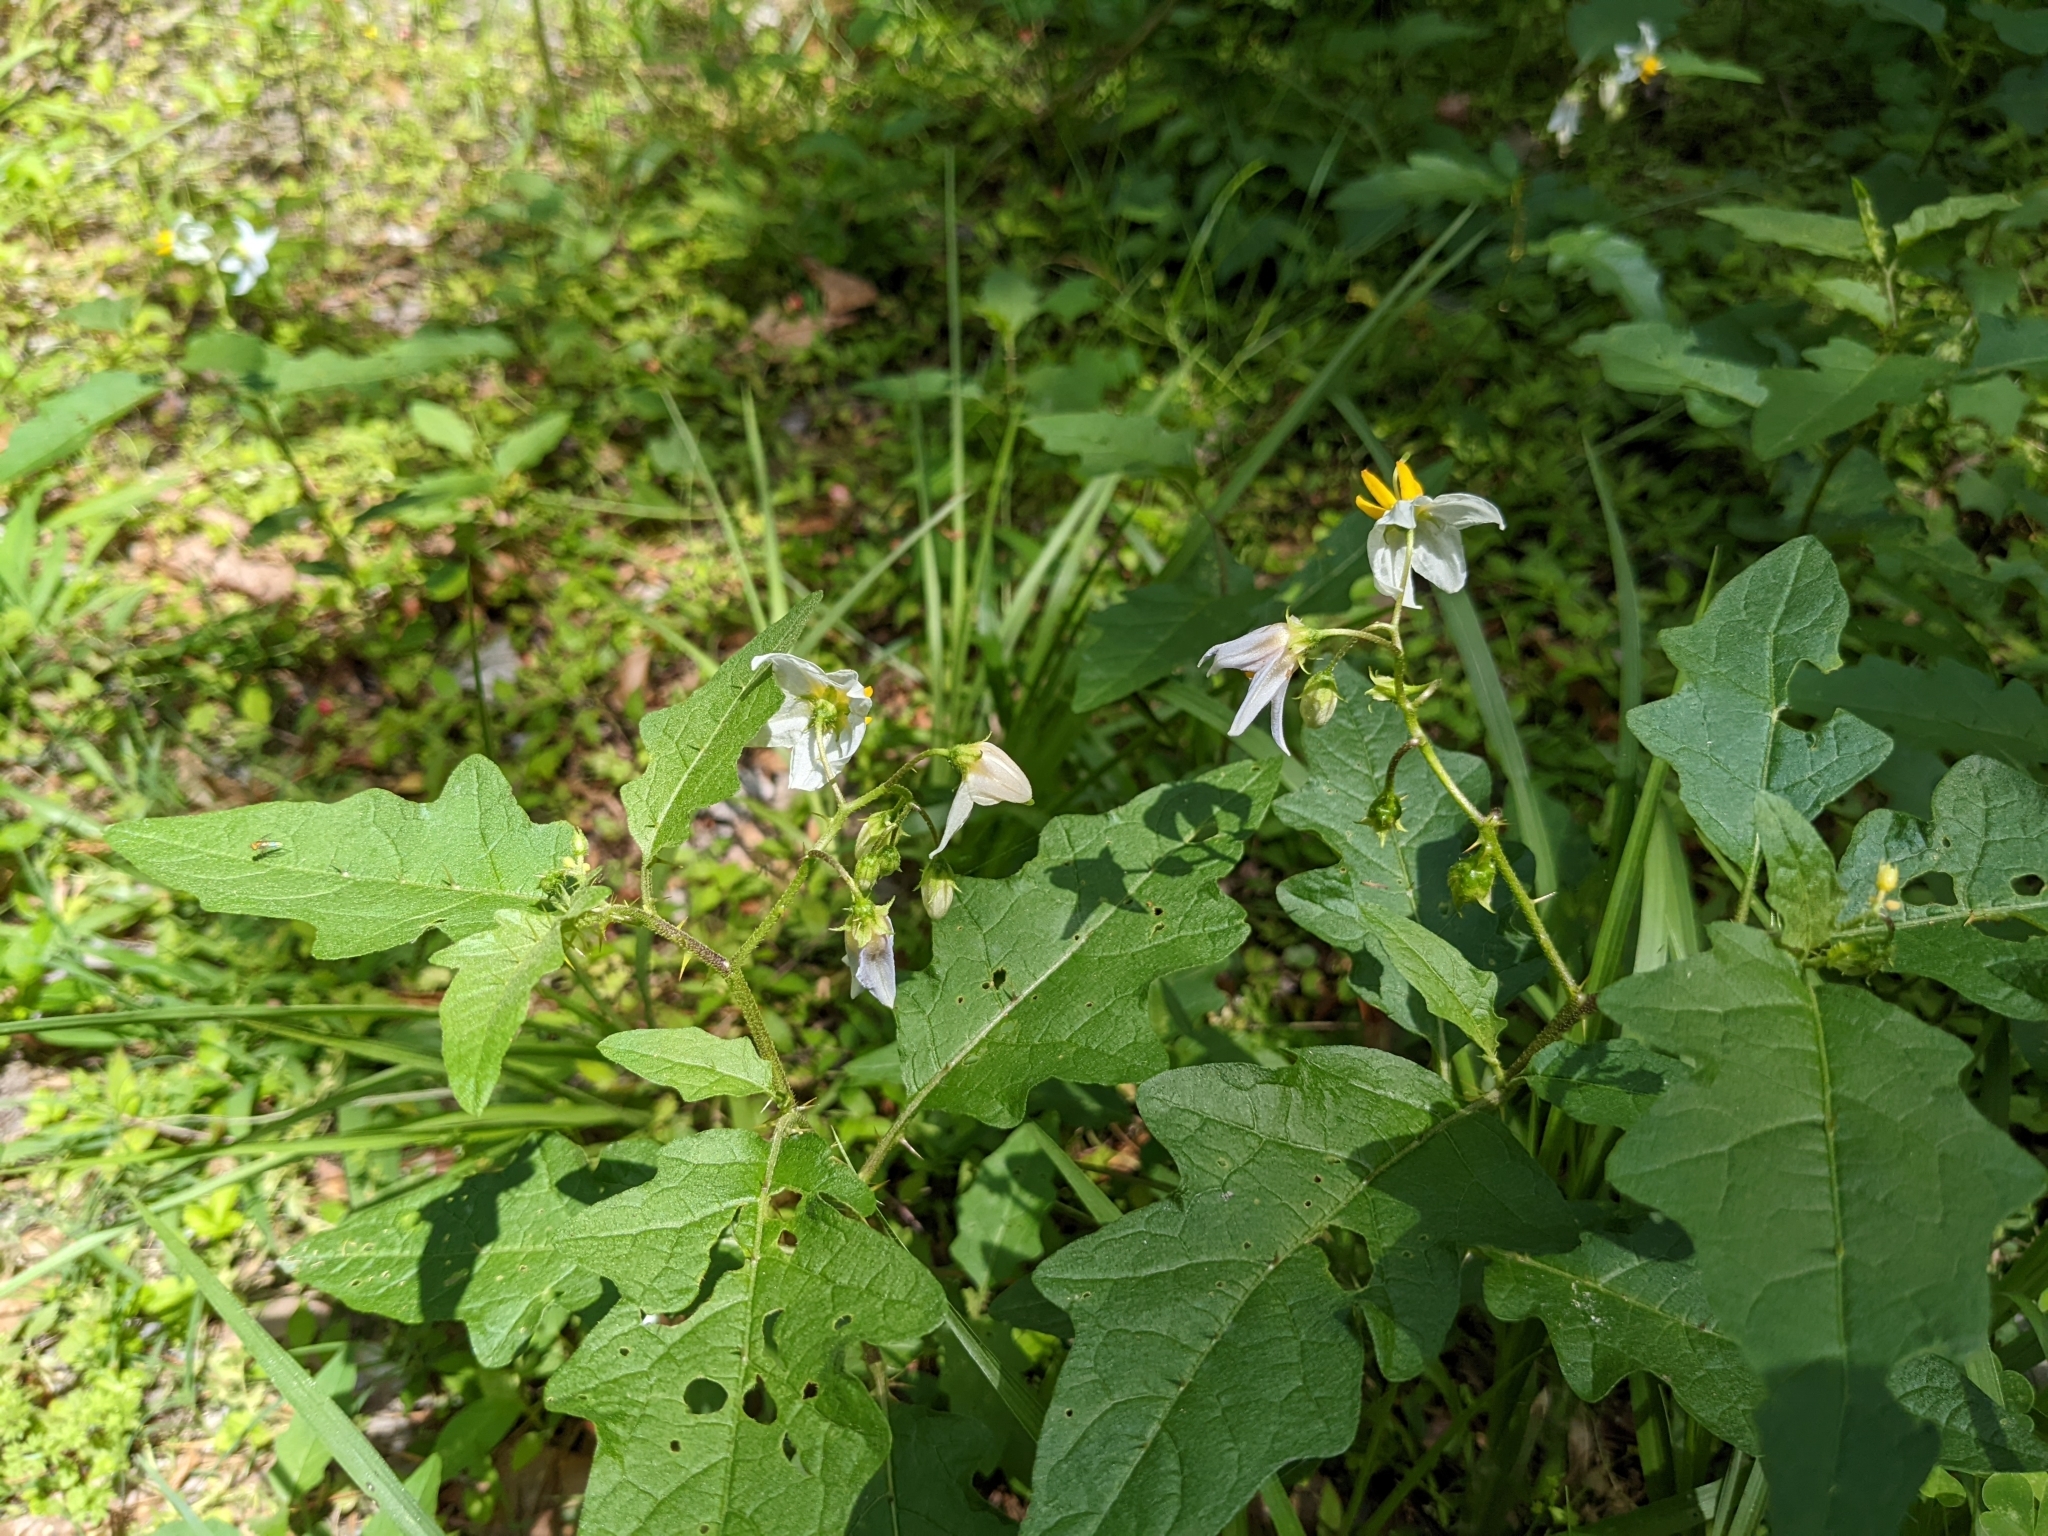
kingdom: Plantae
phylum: Tracheophyta
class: Magnoliopsida
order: Solanales
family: Solanaceae
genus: Solanum
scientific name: Solanum carolinense
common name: Horse-nettle
